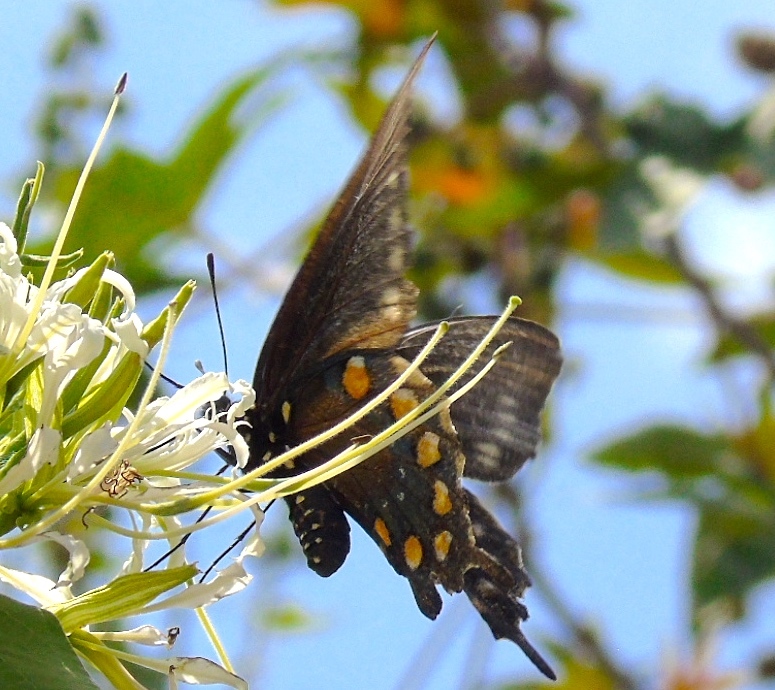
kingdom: Animalia
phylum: Arthropoda
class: Insecta
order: Lepidoptera
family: Papilionidae
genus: Battus
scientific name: Battus philenor
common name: Pipevine swallowtail
